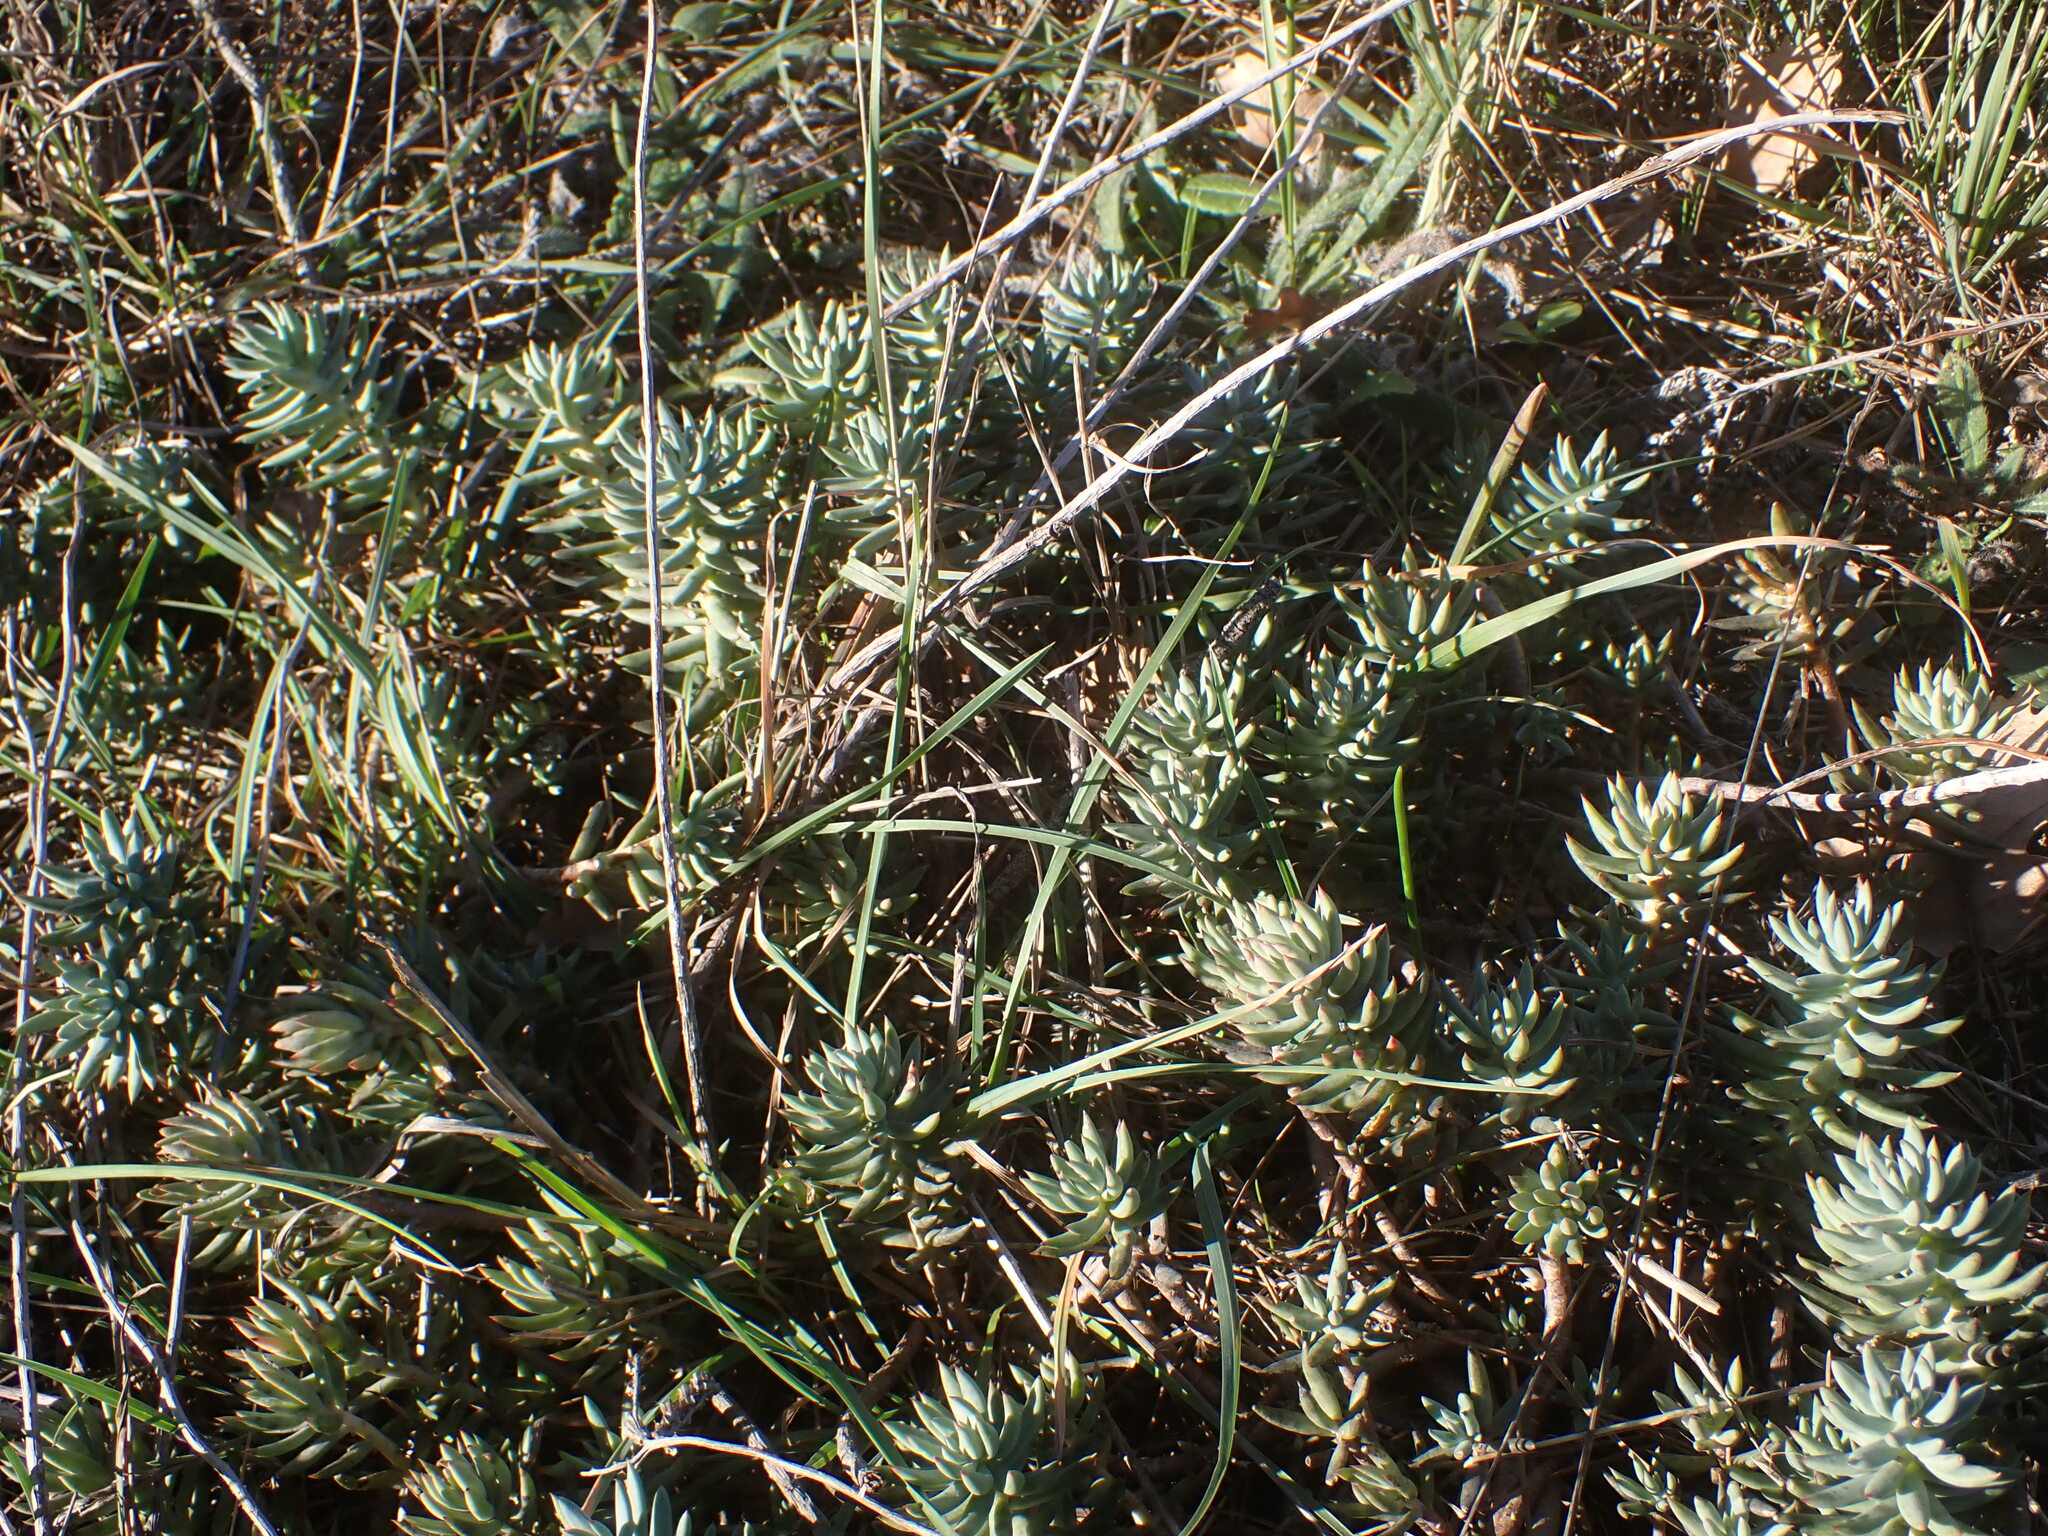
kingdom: Plantae
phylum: Tracheophyta
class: Magnoliopsida
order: Saxifragales
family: Crassulaceae
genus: Petrosedum
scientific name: Petrosedum sediforme
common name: Pale stonecrop
